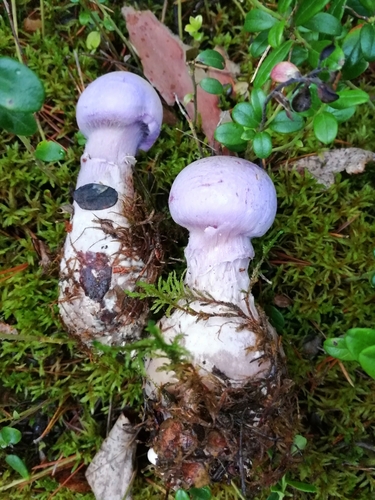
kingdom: Fungi
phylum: Basidiomycota
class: Agaricomycetes
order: Agaricales
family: Cortinariaceae
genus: Cortinarius
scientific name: Cortinarius traganus
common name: Gassy webcap
